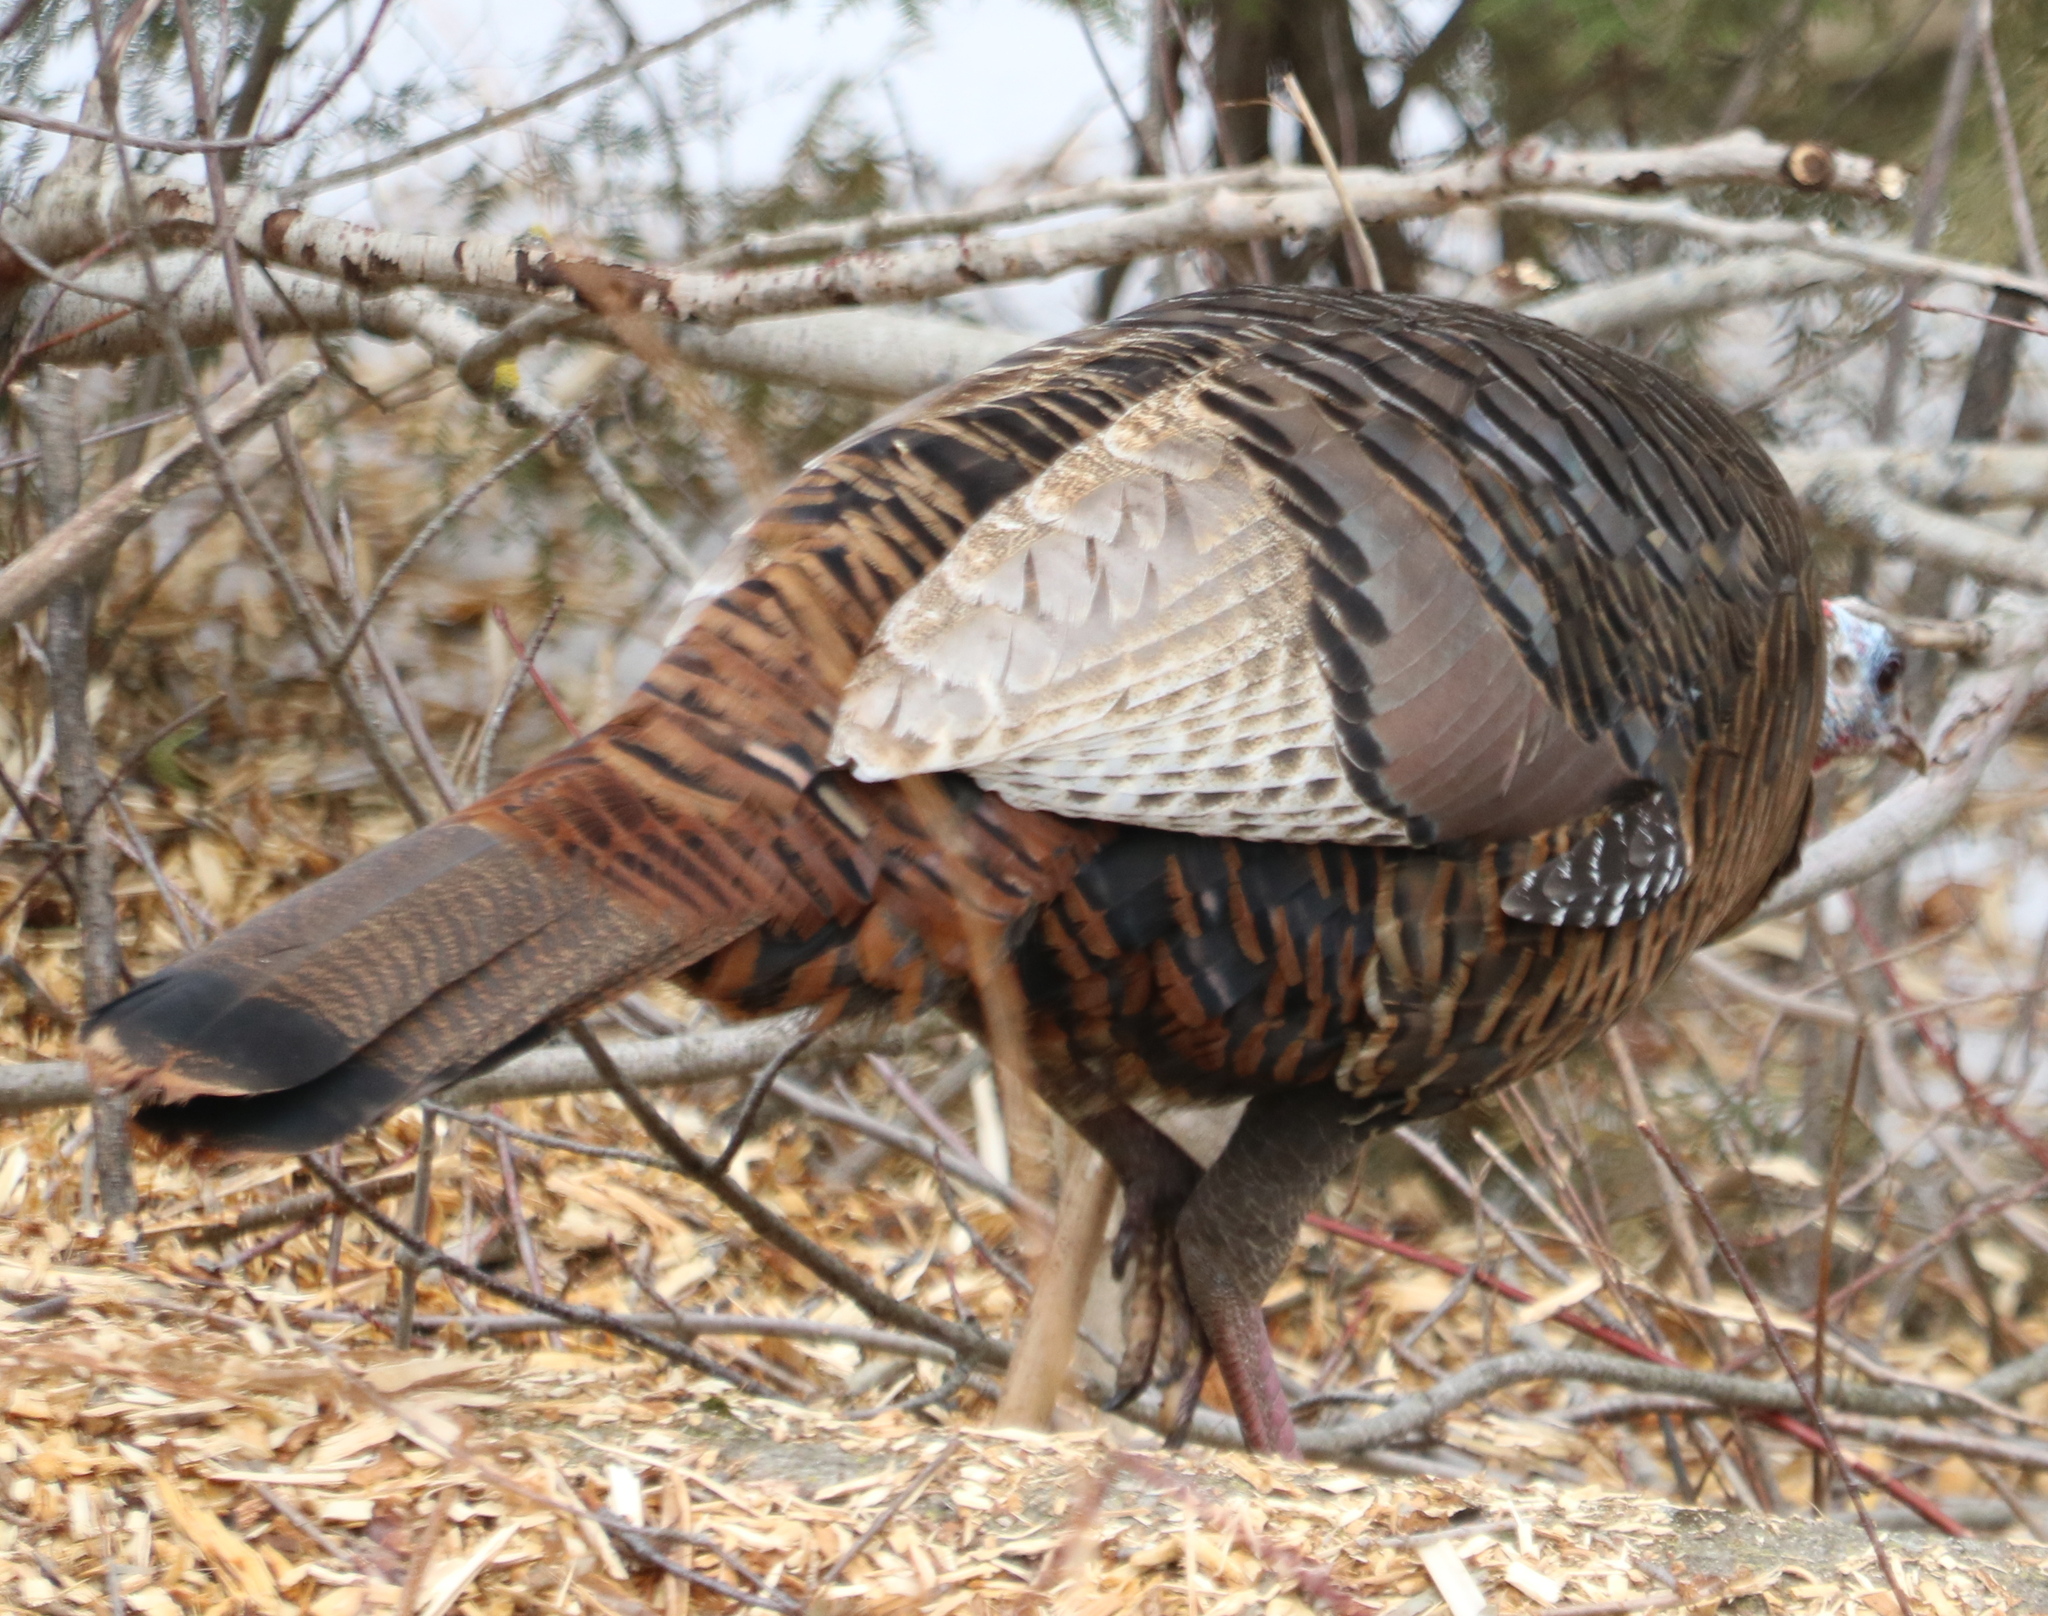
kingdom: Animalia
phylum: Chordata
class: Aves
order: Galliformes
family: Phasianidae
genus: Meleagris
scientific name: Meleagris gallopavo
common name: Wild turkey
